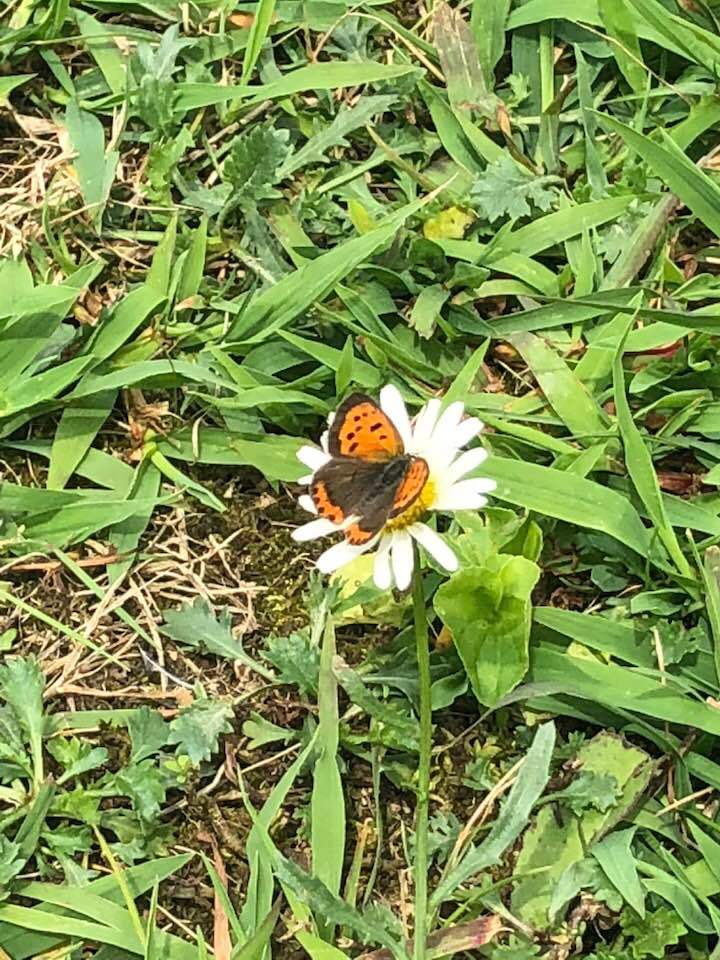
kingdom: Animalia
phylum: Arthropoda
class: Insecta
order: Lepidoptera
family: Lycaenidae
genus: Lycaena
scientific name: Lycaena hypophlaeas
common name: American copper
